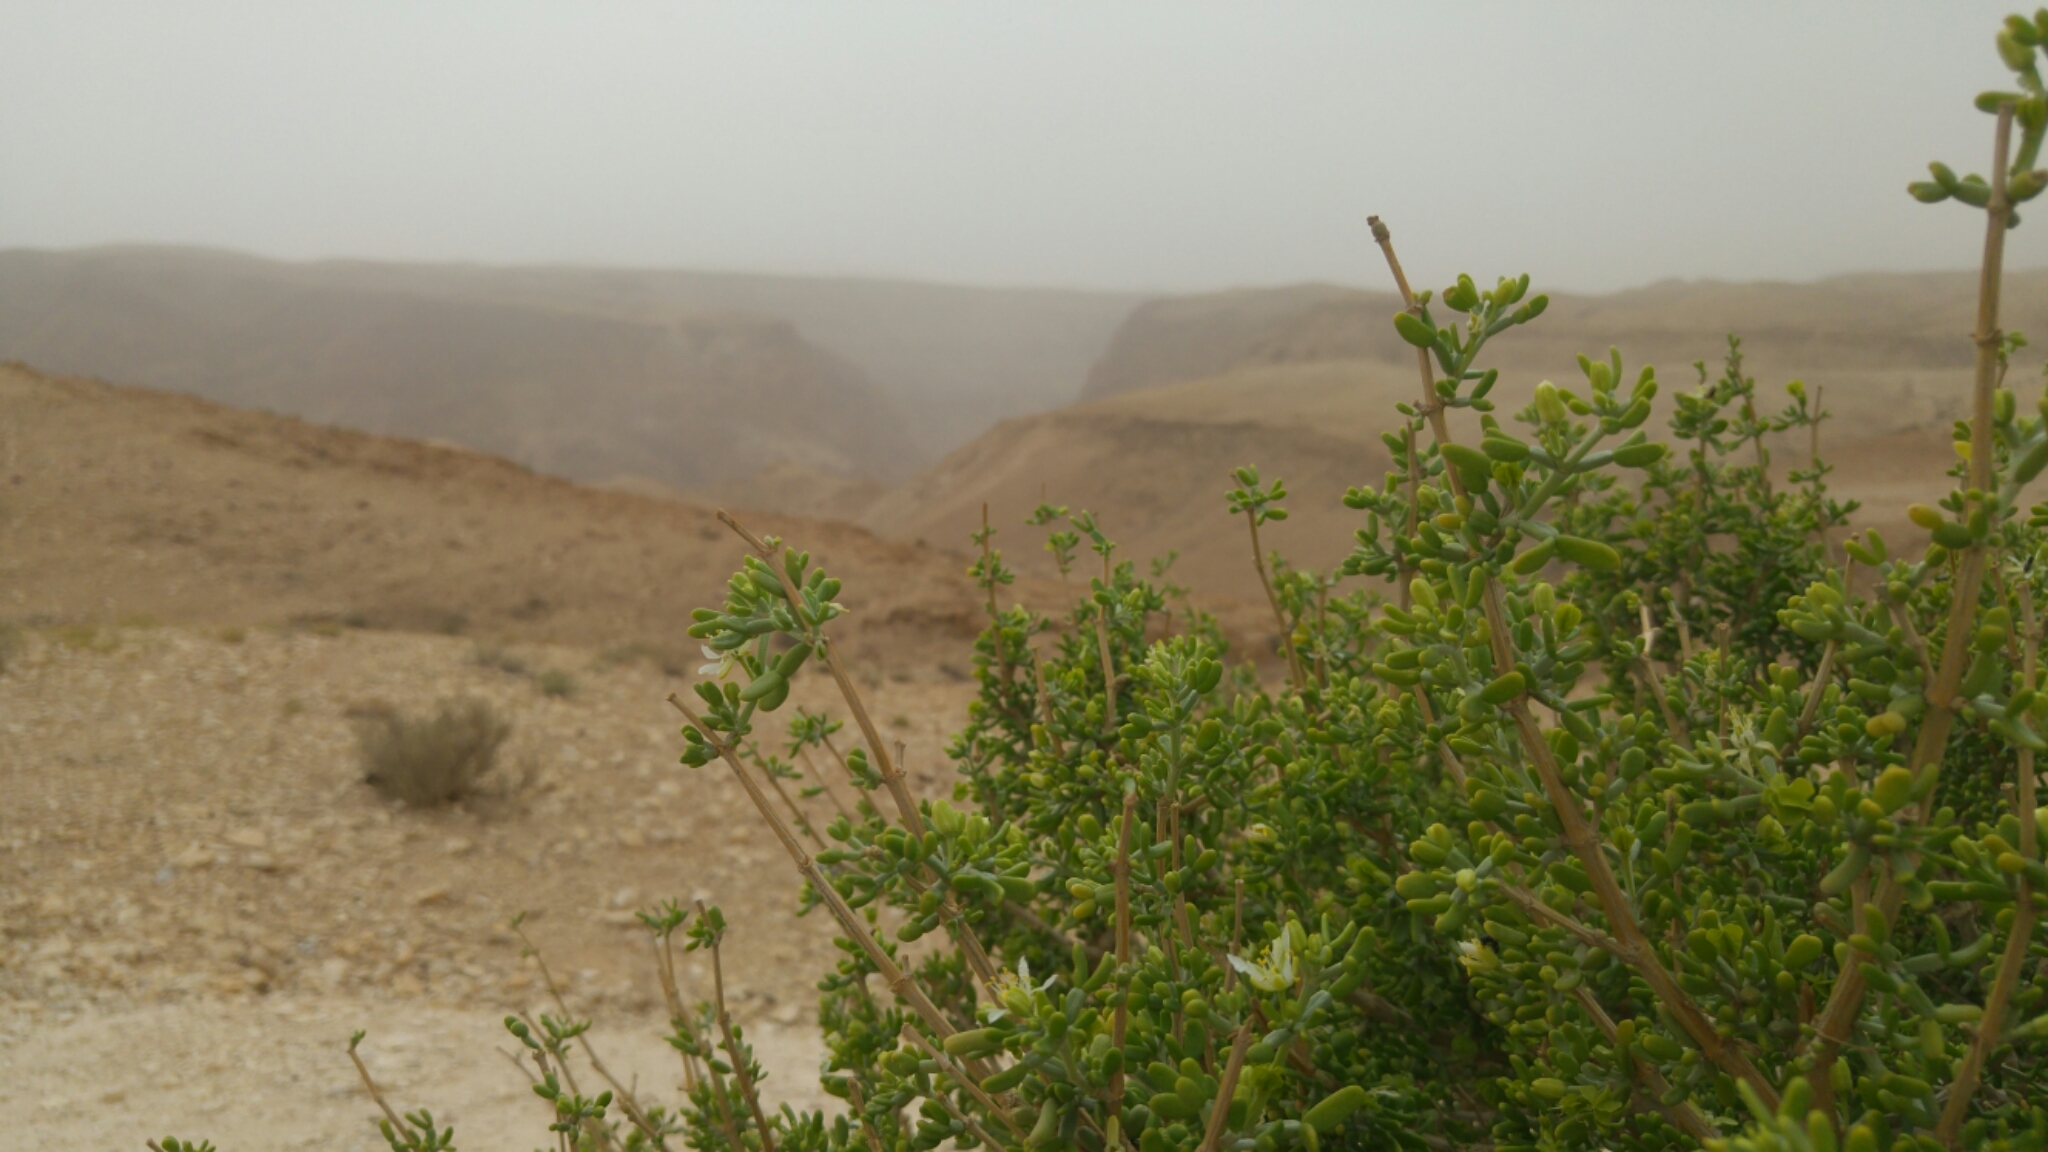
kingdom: Plantae
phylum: Tracheophyta
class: Magnoliopsida
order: Zygophyllales
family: Zygophyllaceae
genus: Tetraena
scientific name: Tetraena dumosa
